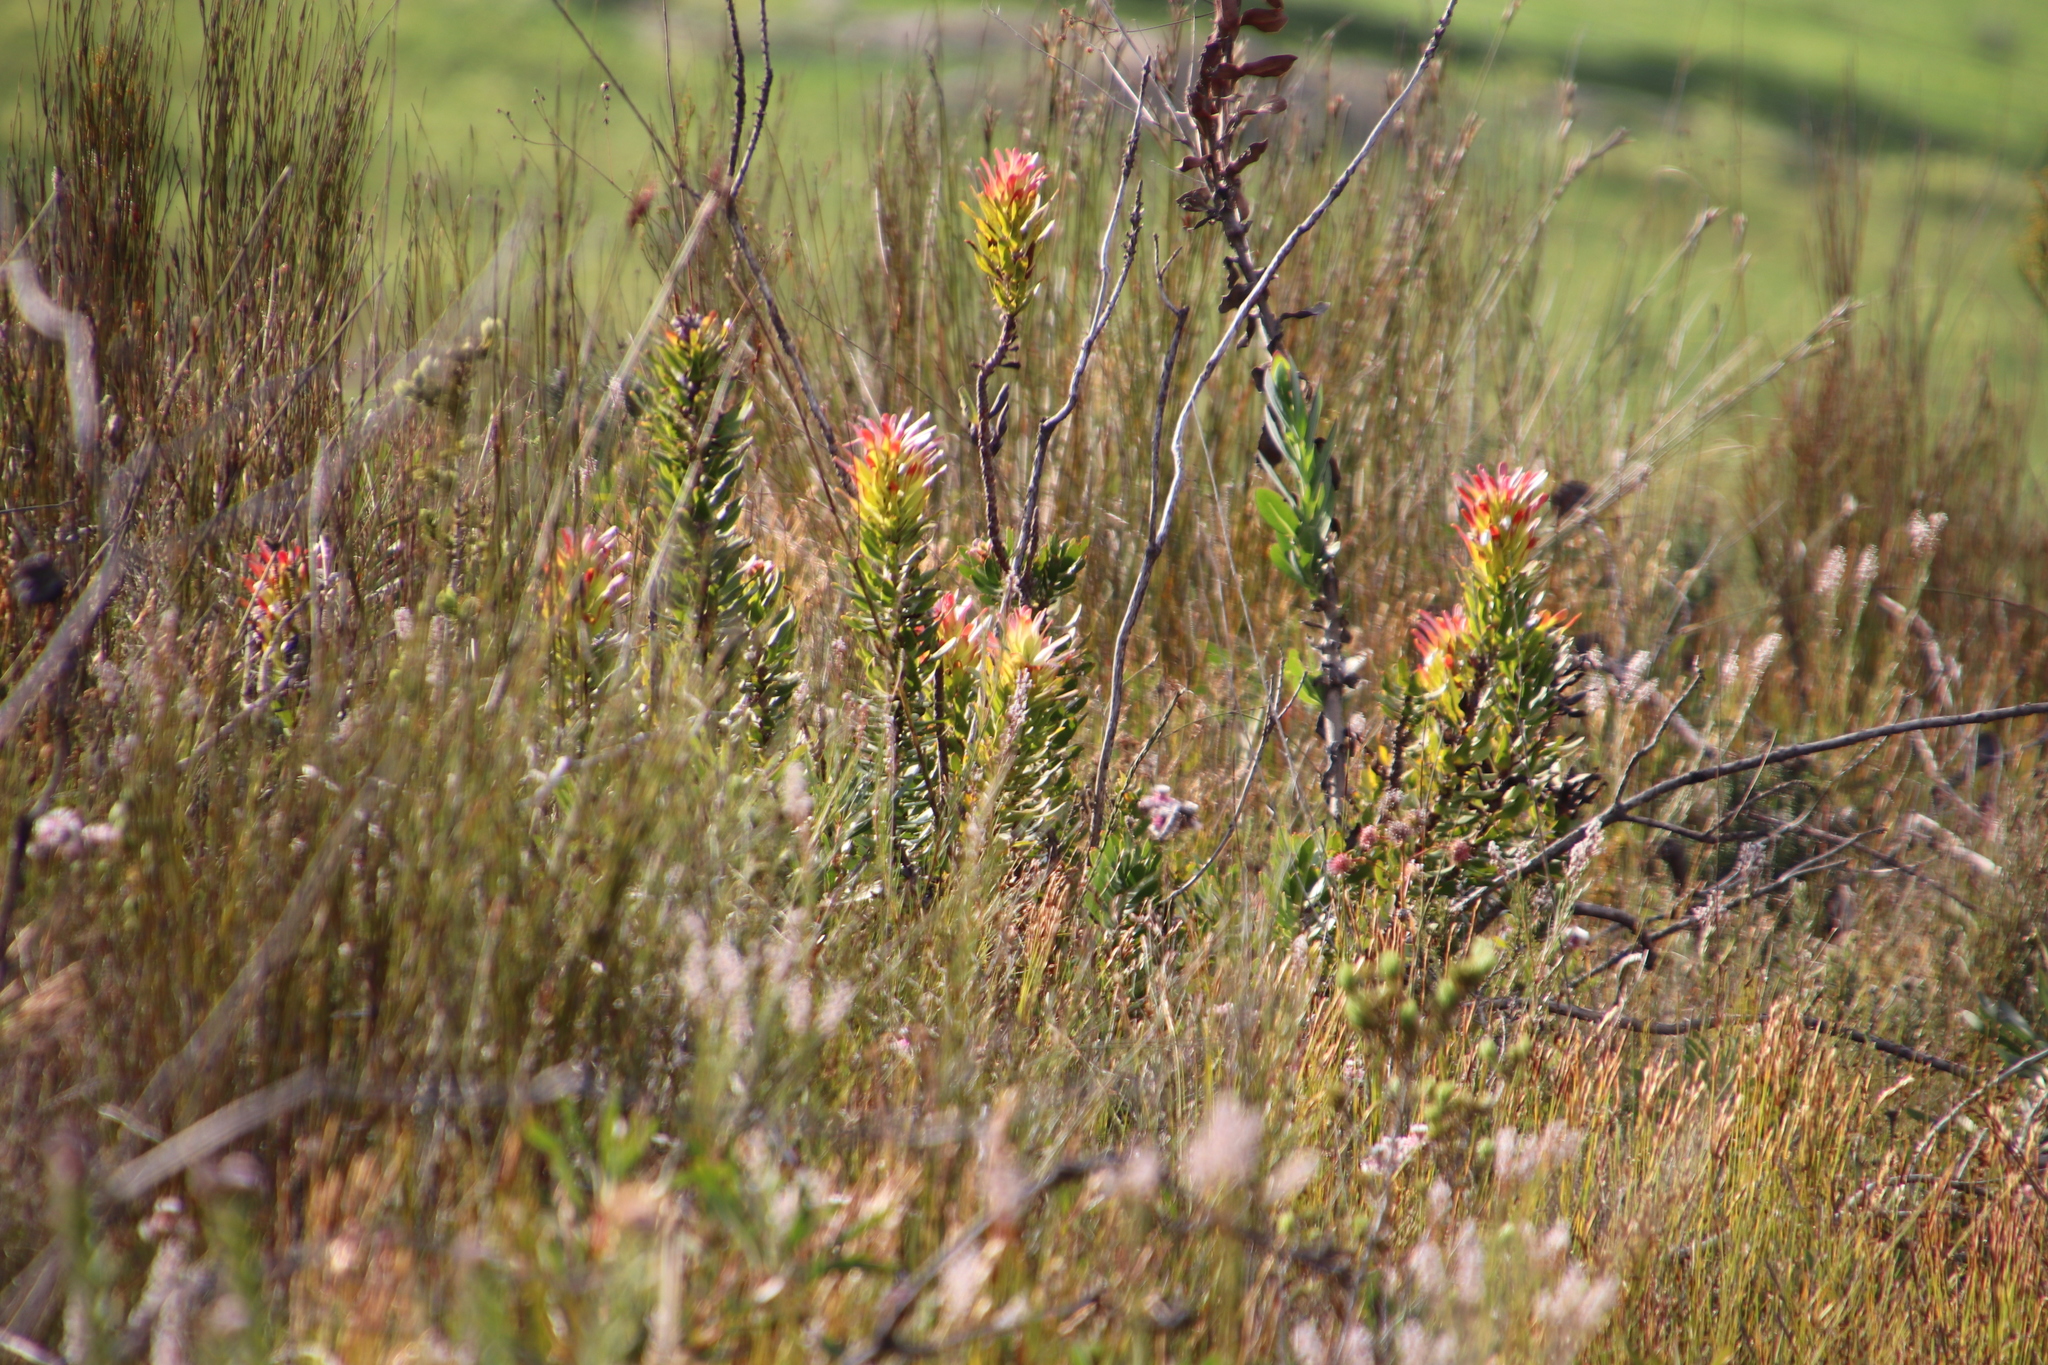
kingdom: Plantae
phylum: Tracheophyta
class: Magnoliopsida
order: Proteales
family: Proteaceae
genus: Mimetes
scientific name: Mimetes cucullatus
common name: Common pagoda
